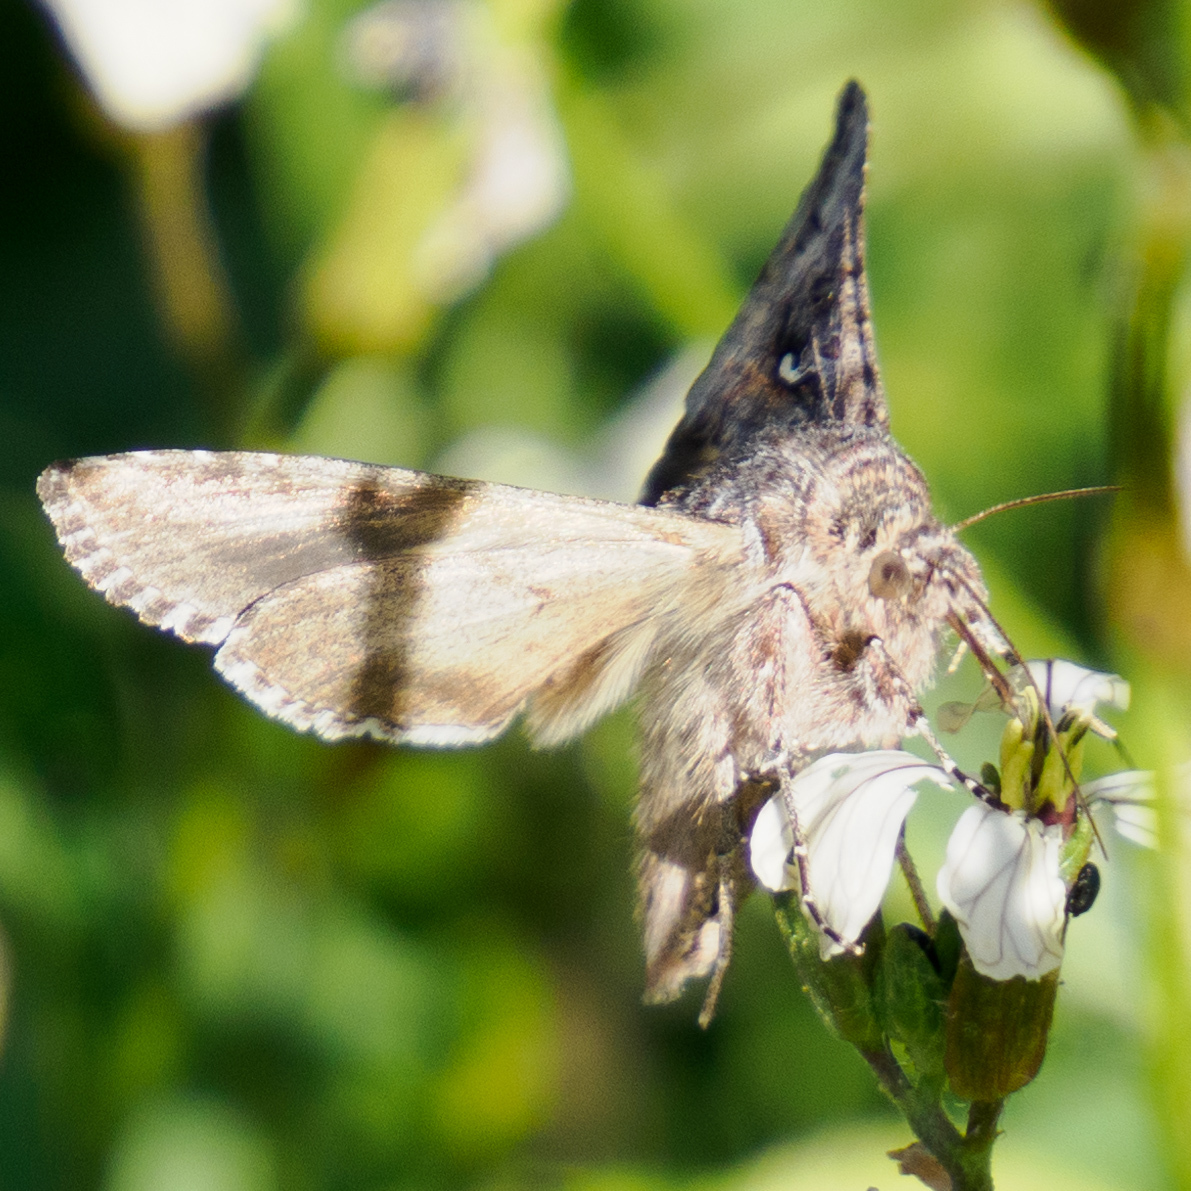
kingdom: Animalia
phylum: Arthropoda
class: Insecta
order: Lepidoptera
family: Noctuidae
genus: Autographa
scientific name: Autographa californica
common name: Alfalfa looper
